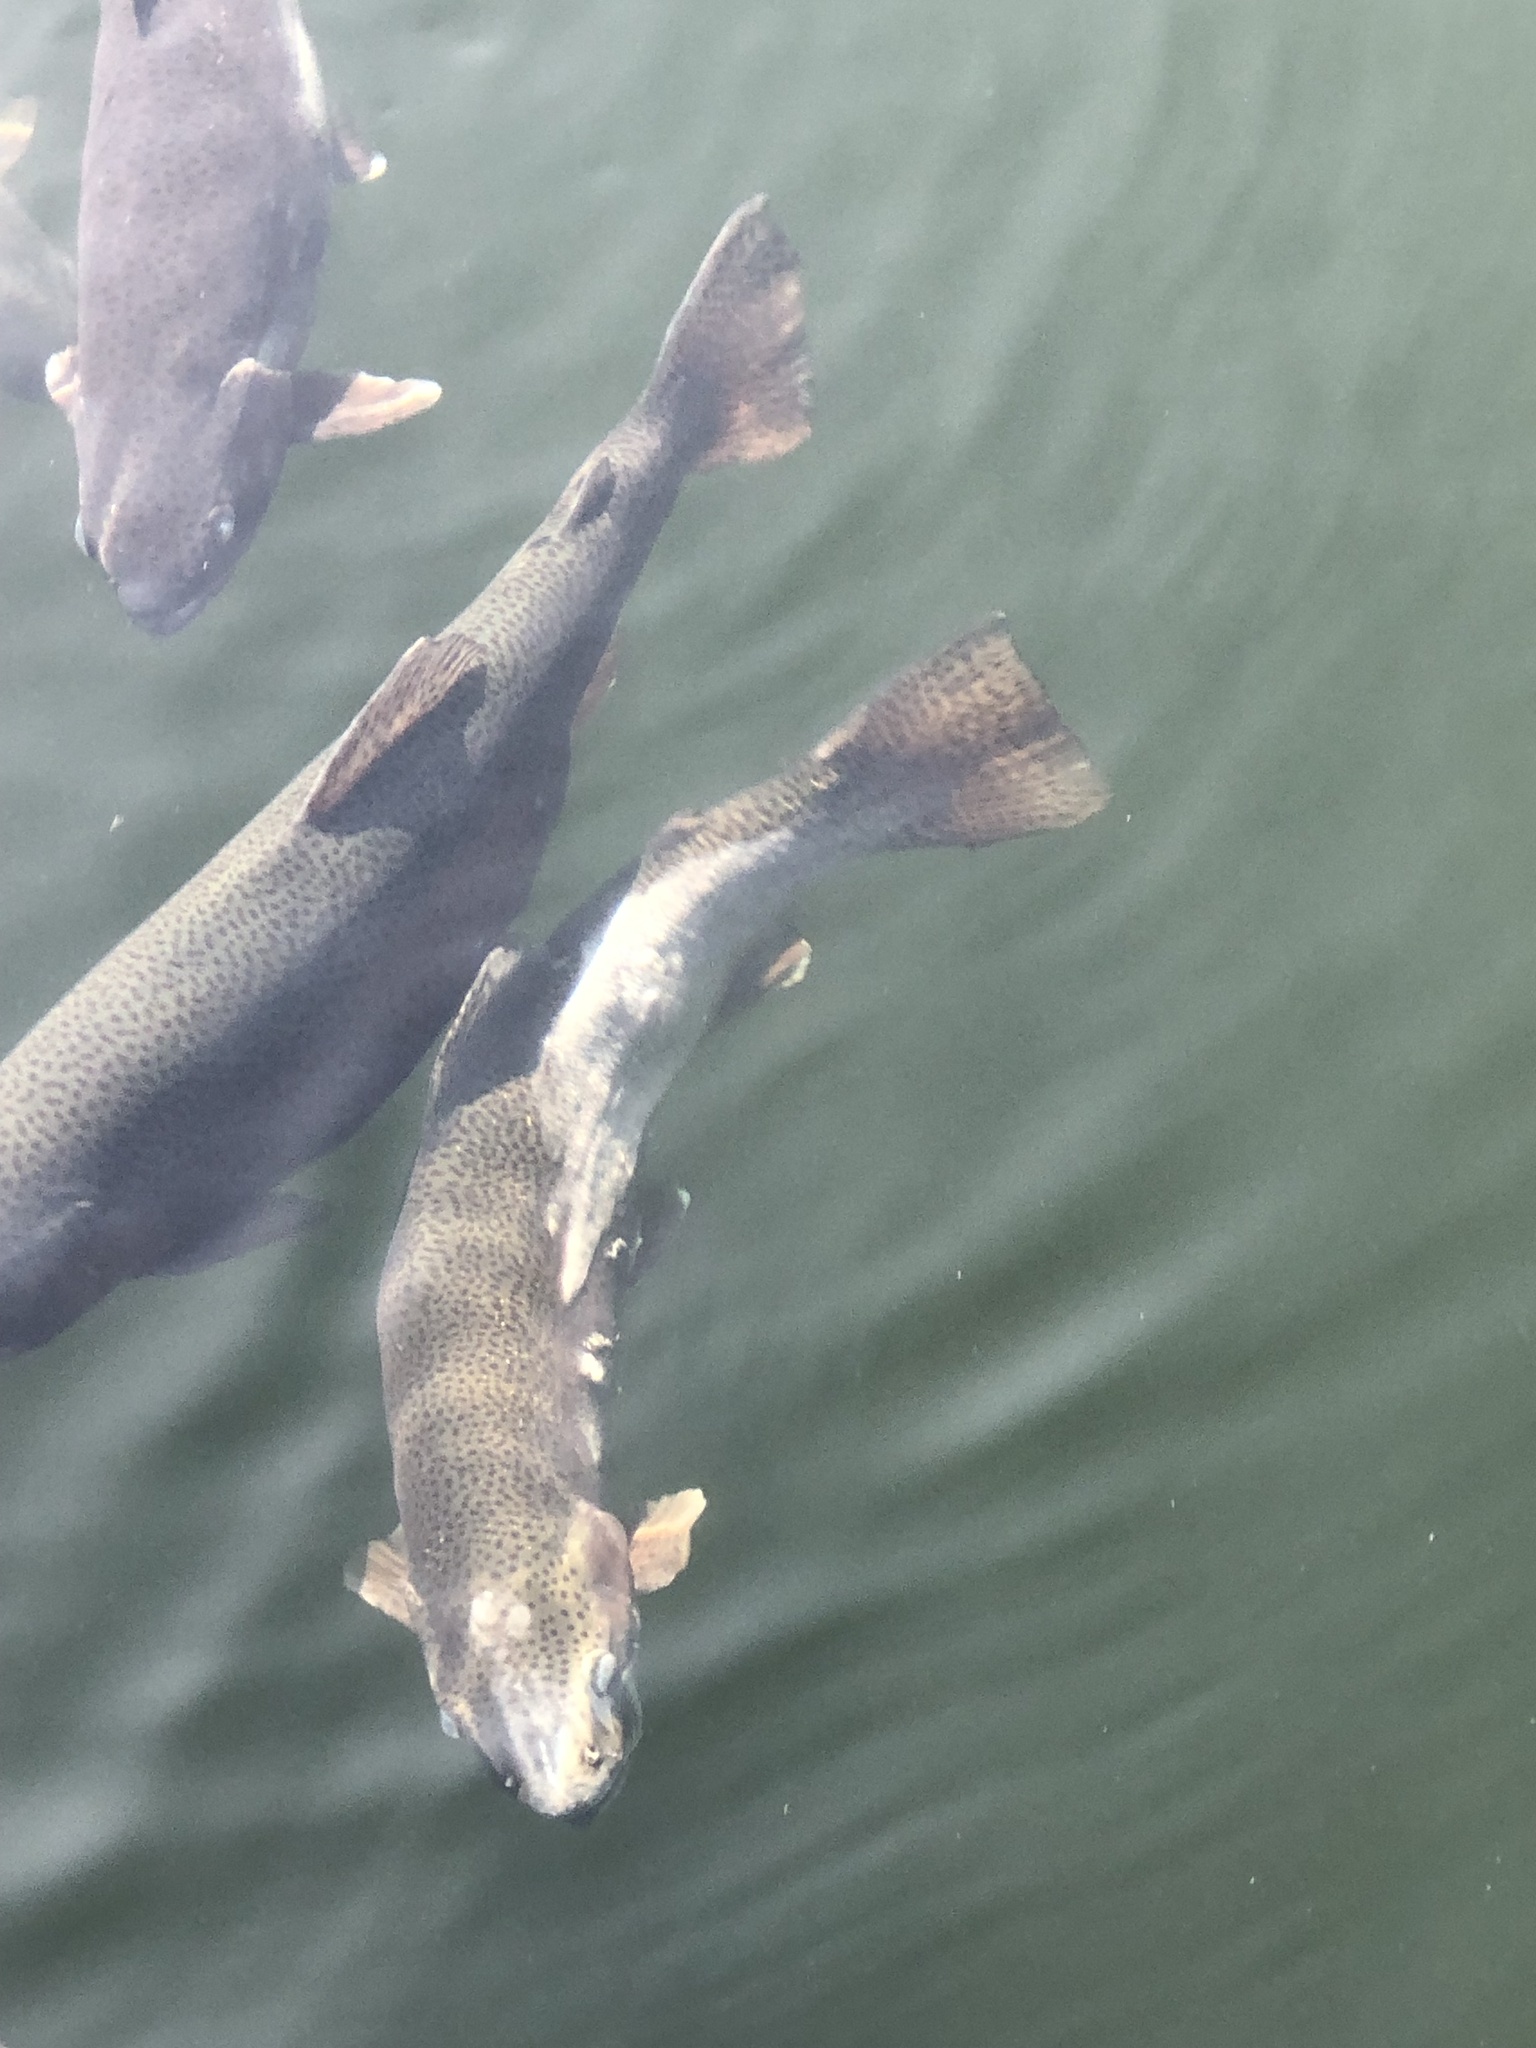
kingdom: Animalia
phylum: Chordata
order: Salmoniformes
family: Salmonidae
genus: Oncorhynchus
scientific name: Oncorhynchus mykiss
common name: Rainbow trout
